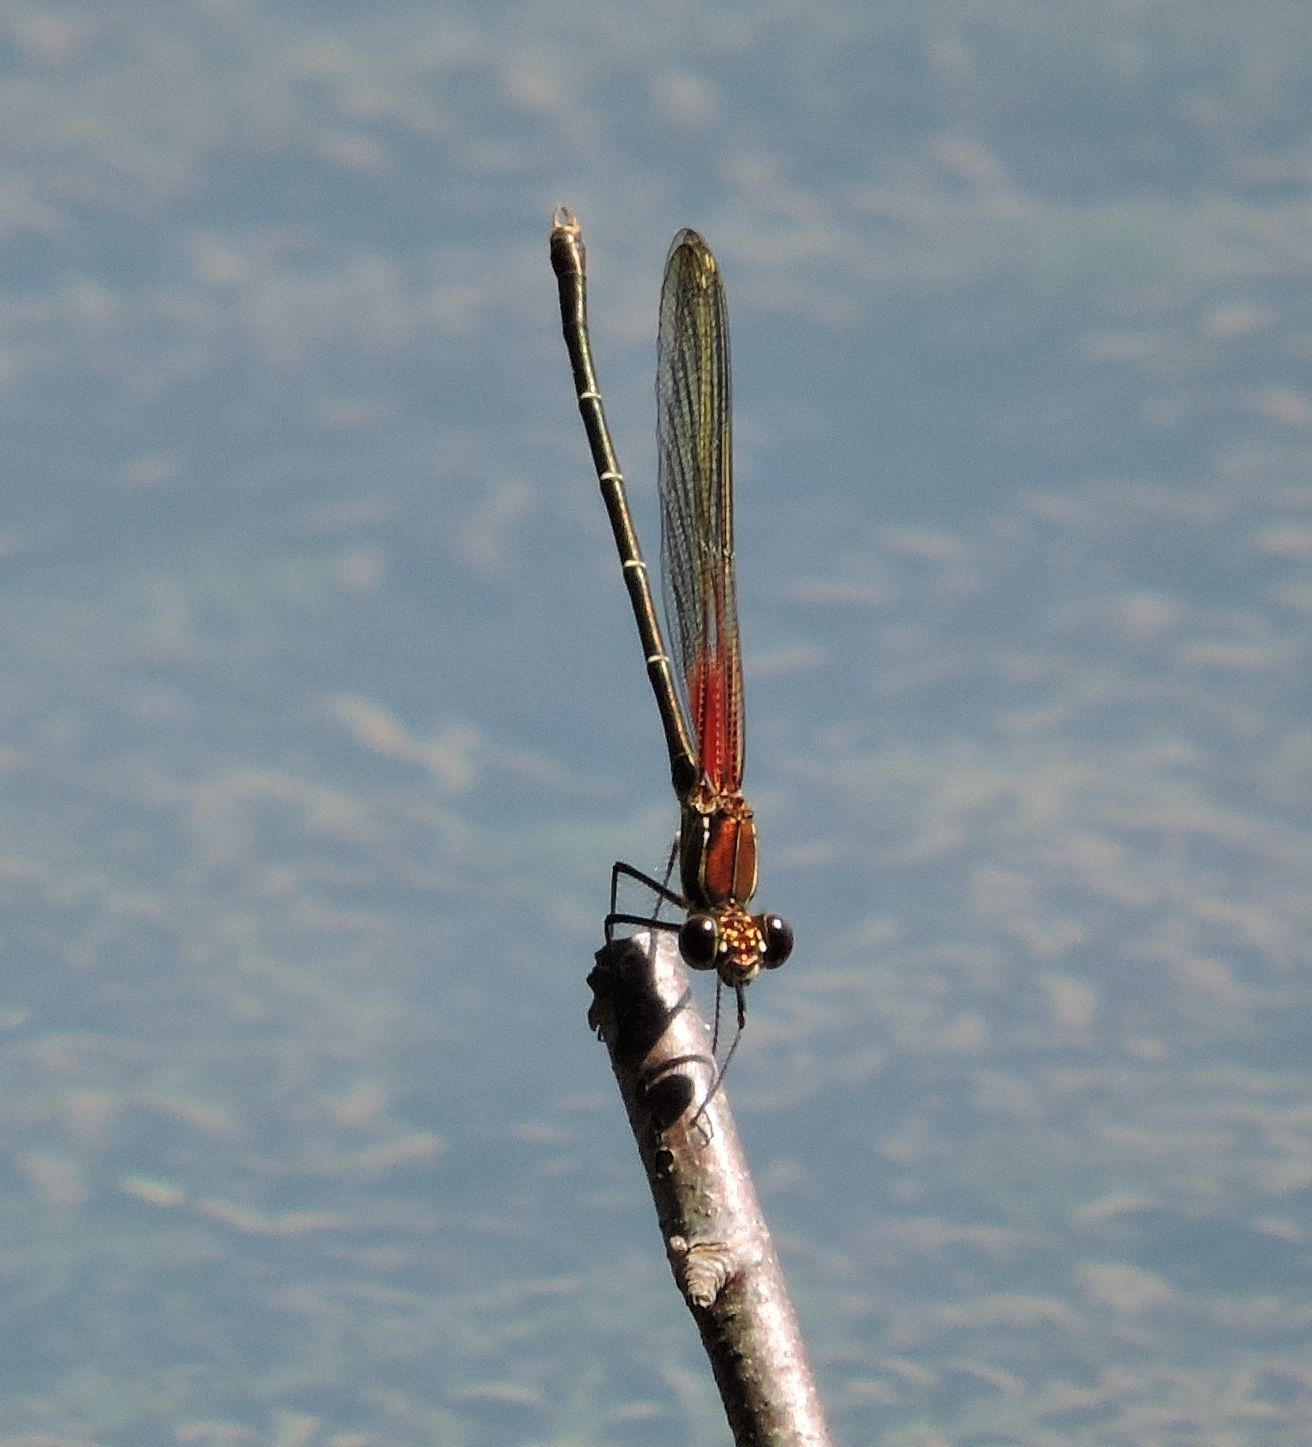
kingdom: Animalia
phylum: Arthropoda
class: Insecta
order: Odonata
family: Calopterygidae
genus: Hetaerina
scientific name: Hetaerina americana
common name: American rubyspot
